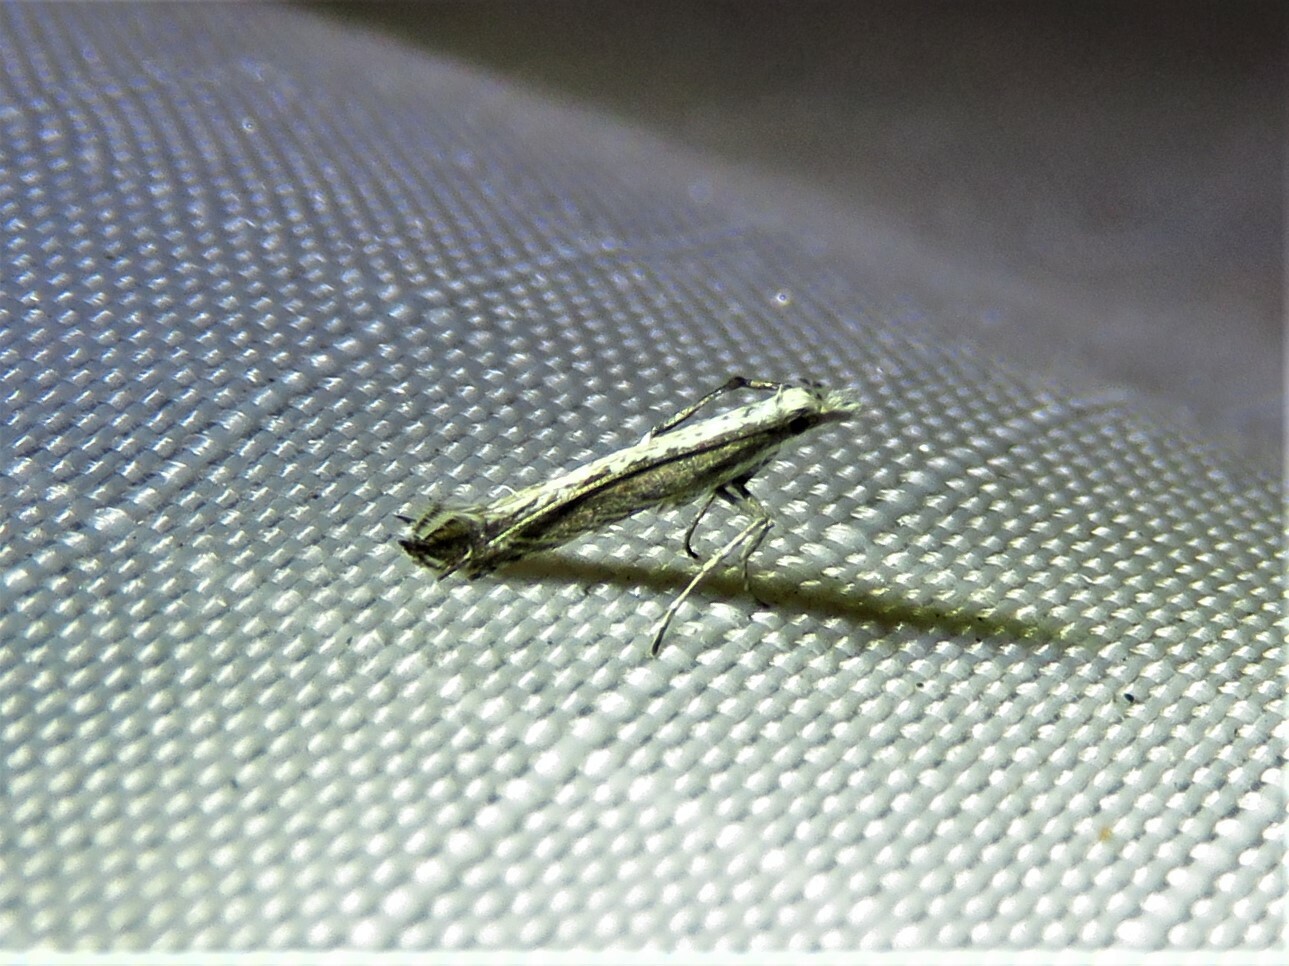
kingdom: Plantae
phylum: Rhodophyta
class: Florideophyceae
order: Gracilariales
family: Gracilariaceae
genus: Gracilaria
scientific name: Gracilaria
